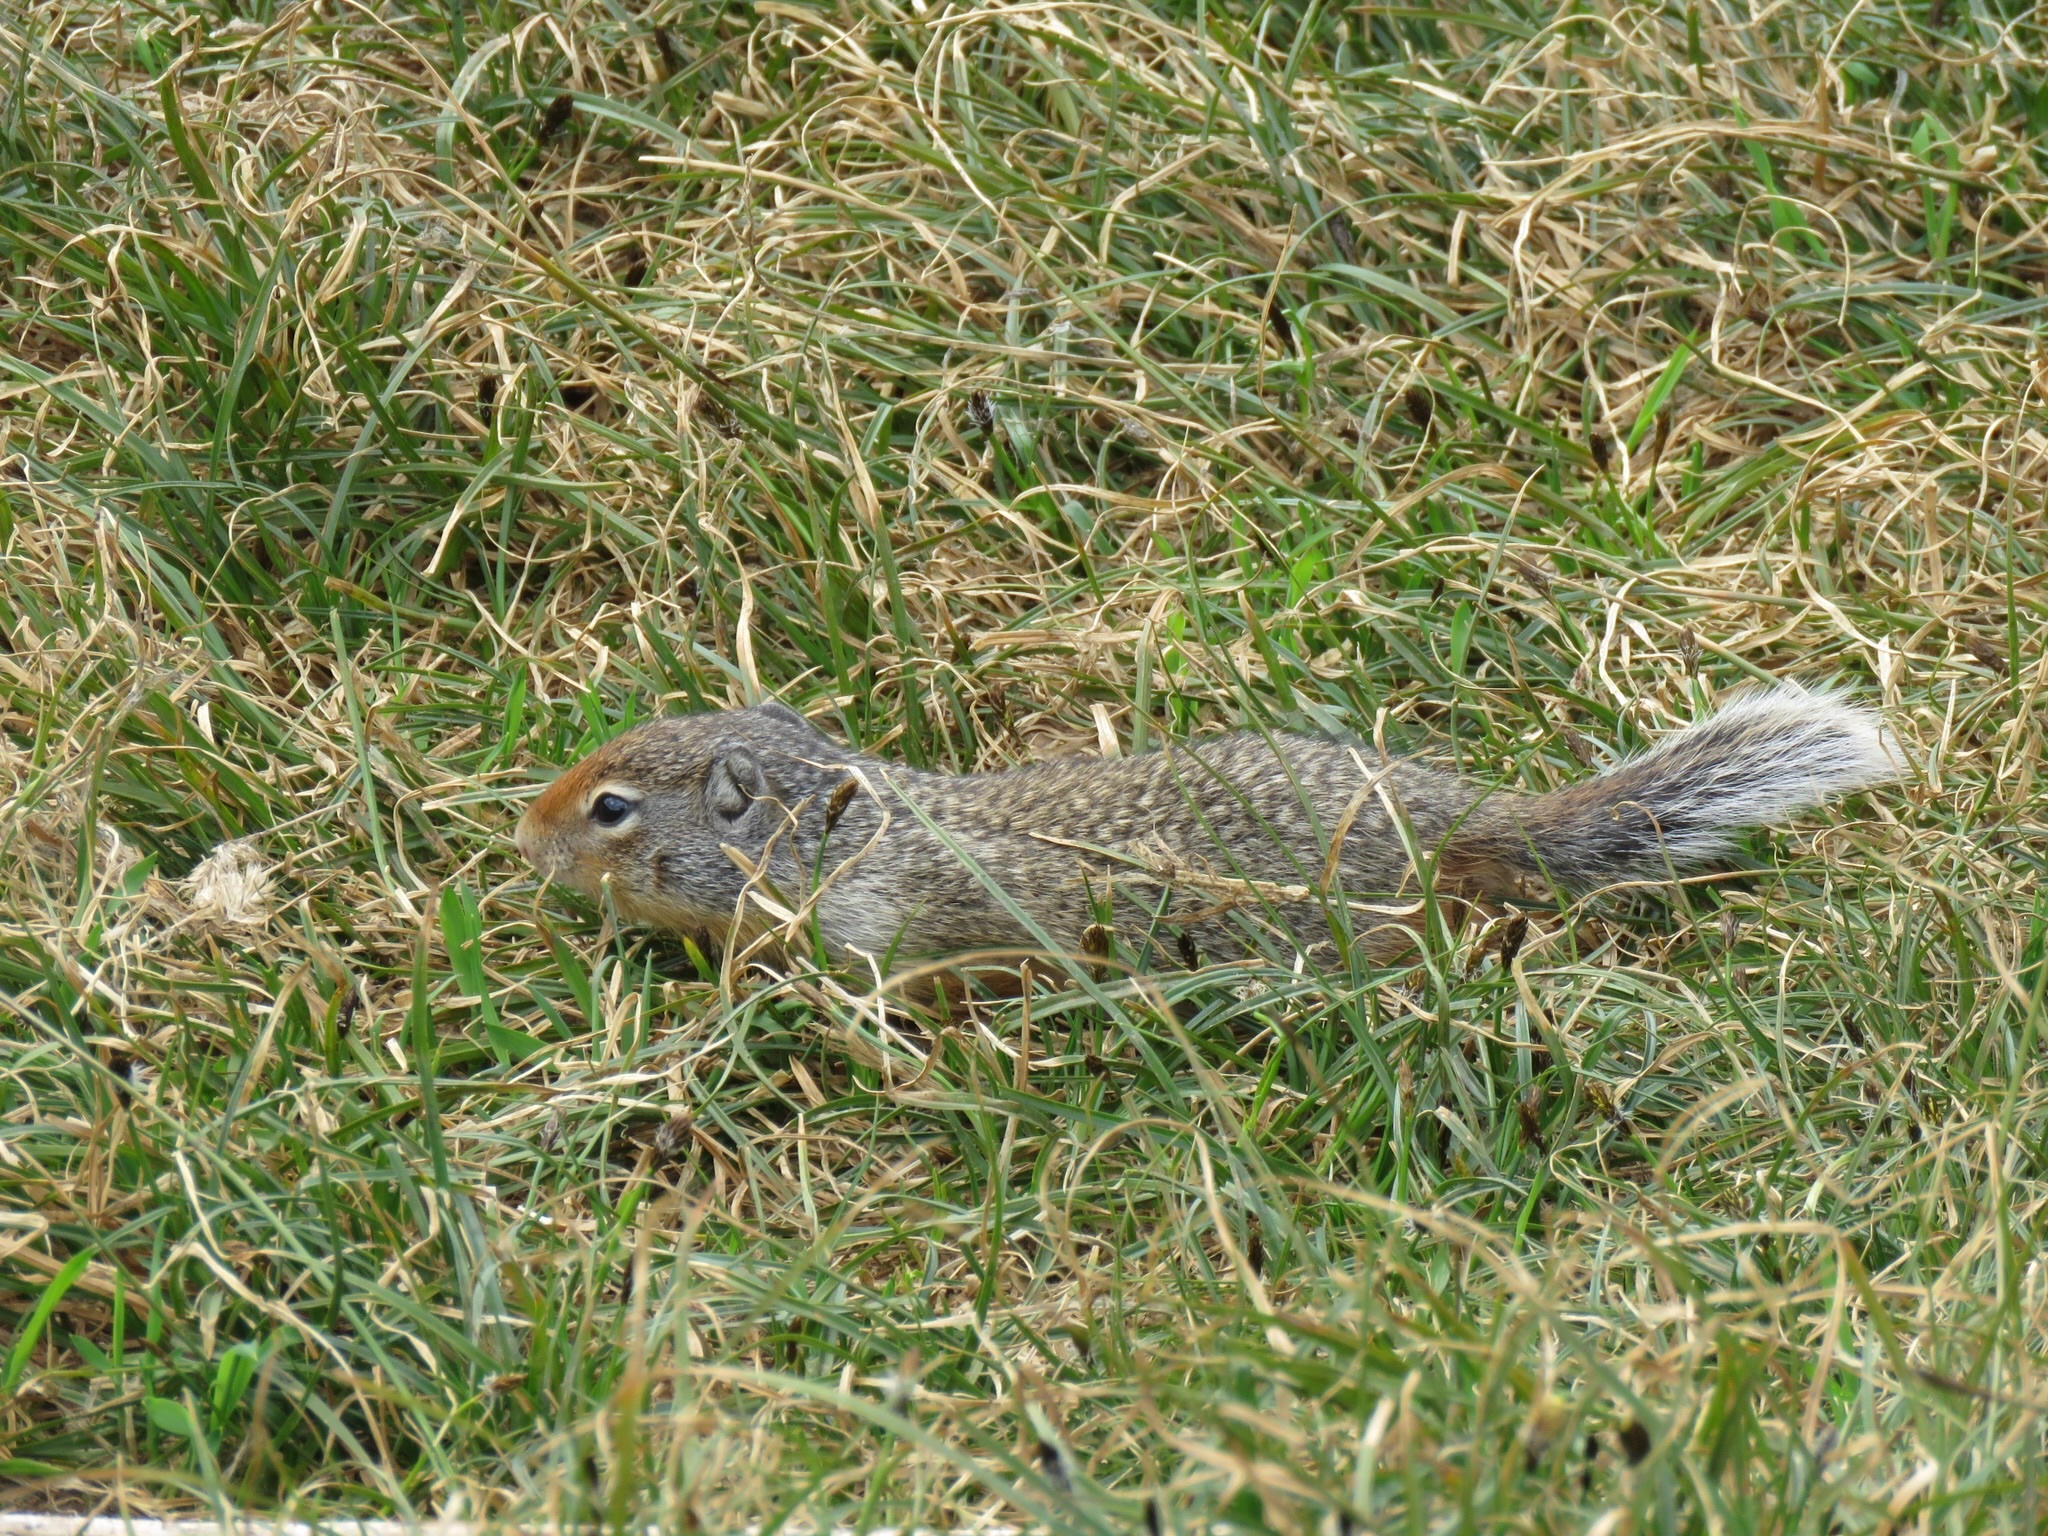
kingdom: Animalia
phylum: Chordata
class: Mammalia
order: Rodentia
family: Sciuridae
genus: Urocitellus
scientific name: Urocitellus columbianus
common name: Columbian ground squirrel
